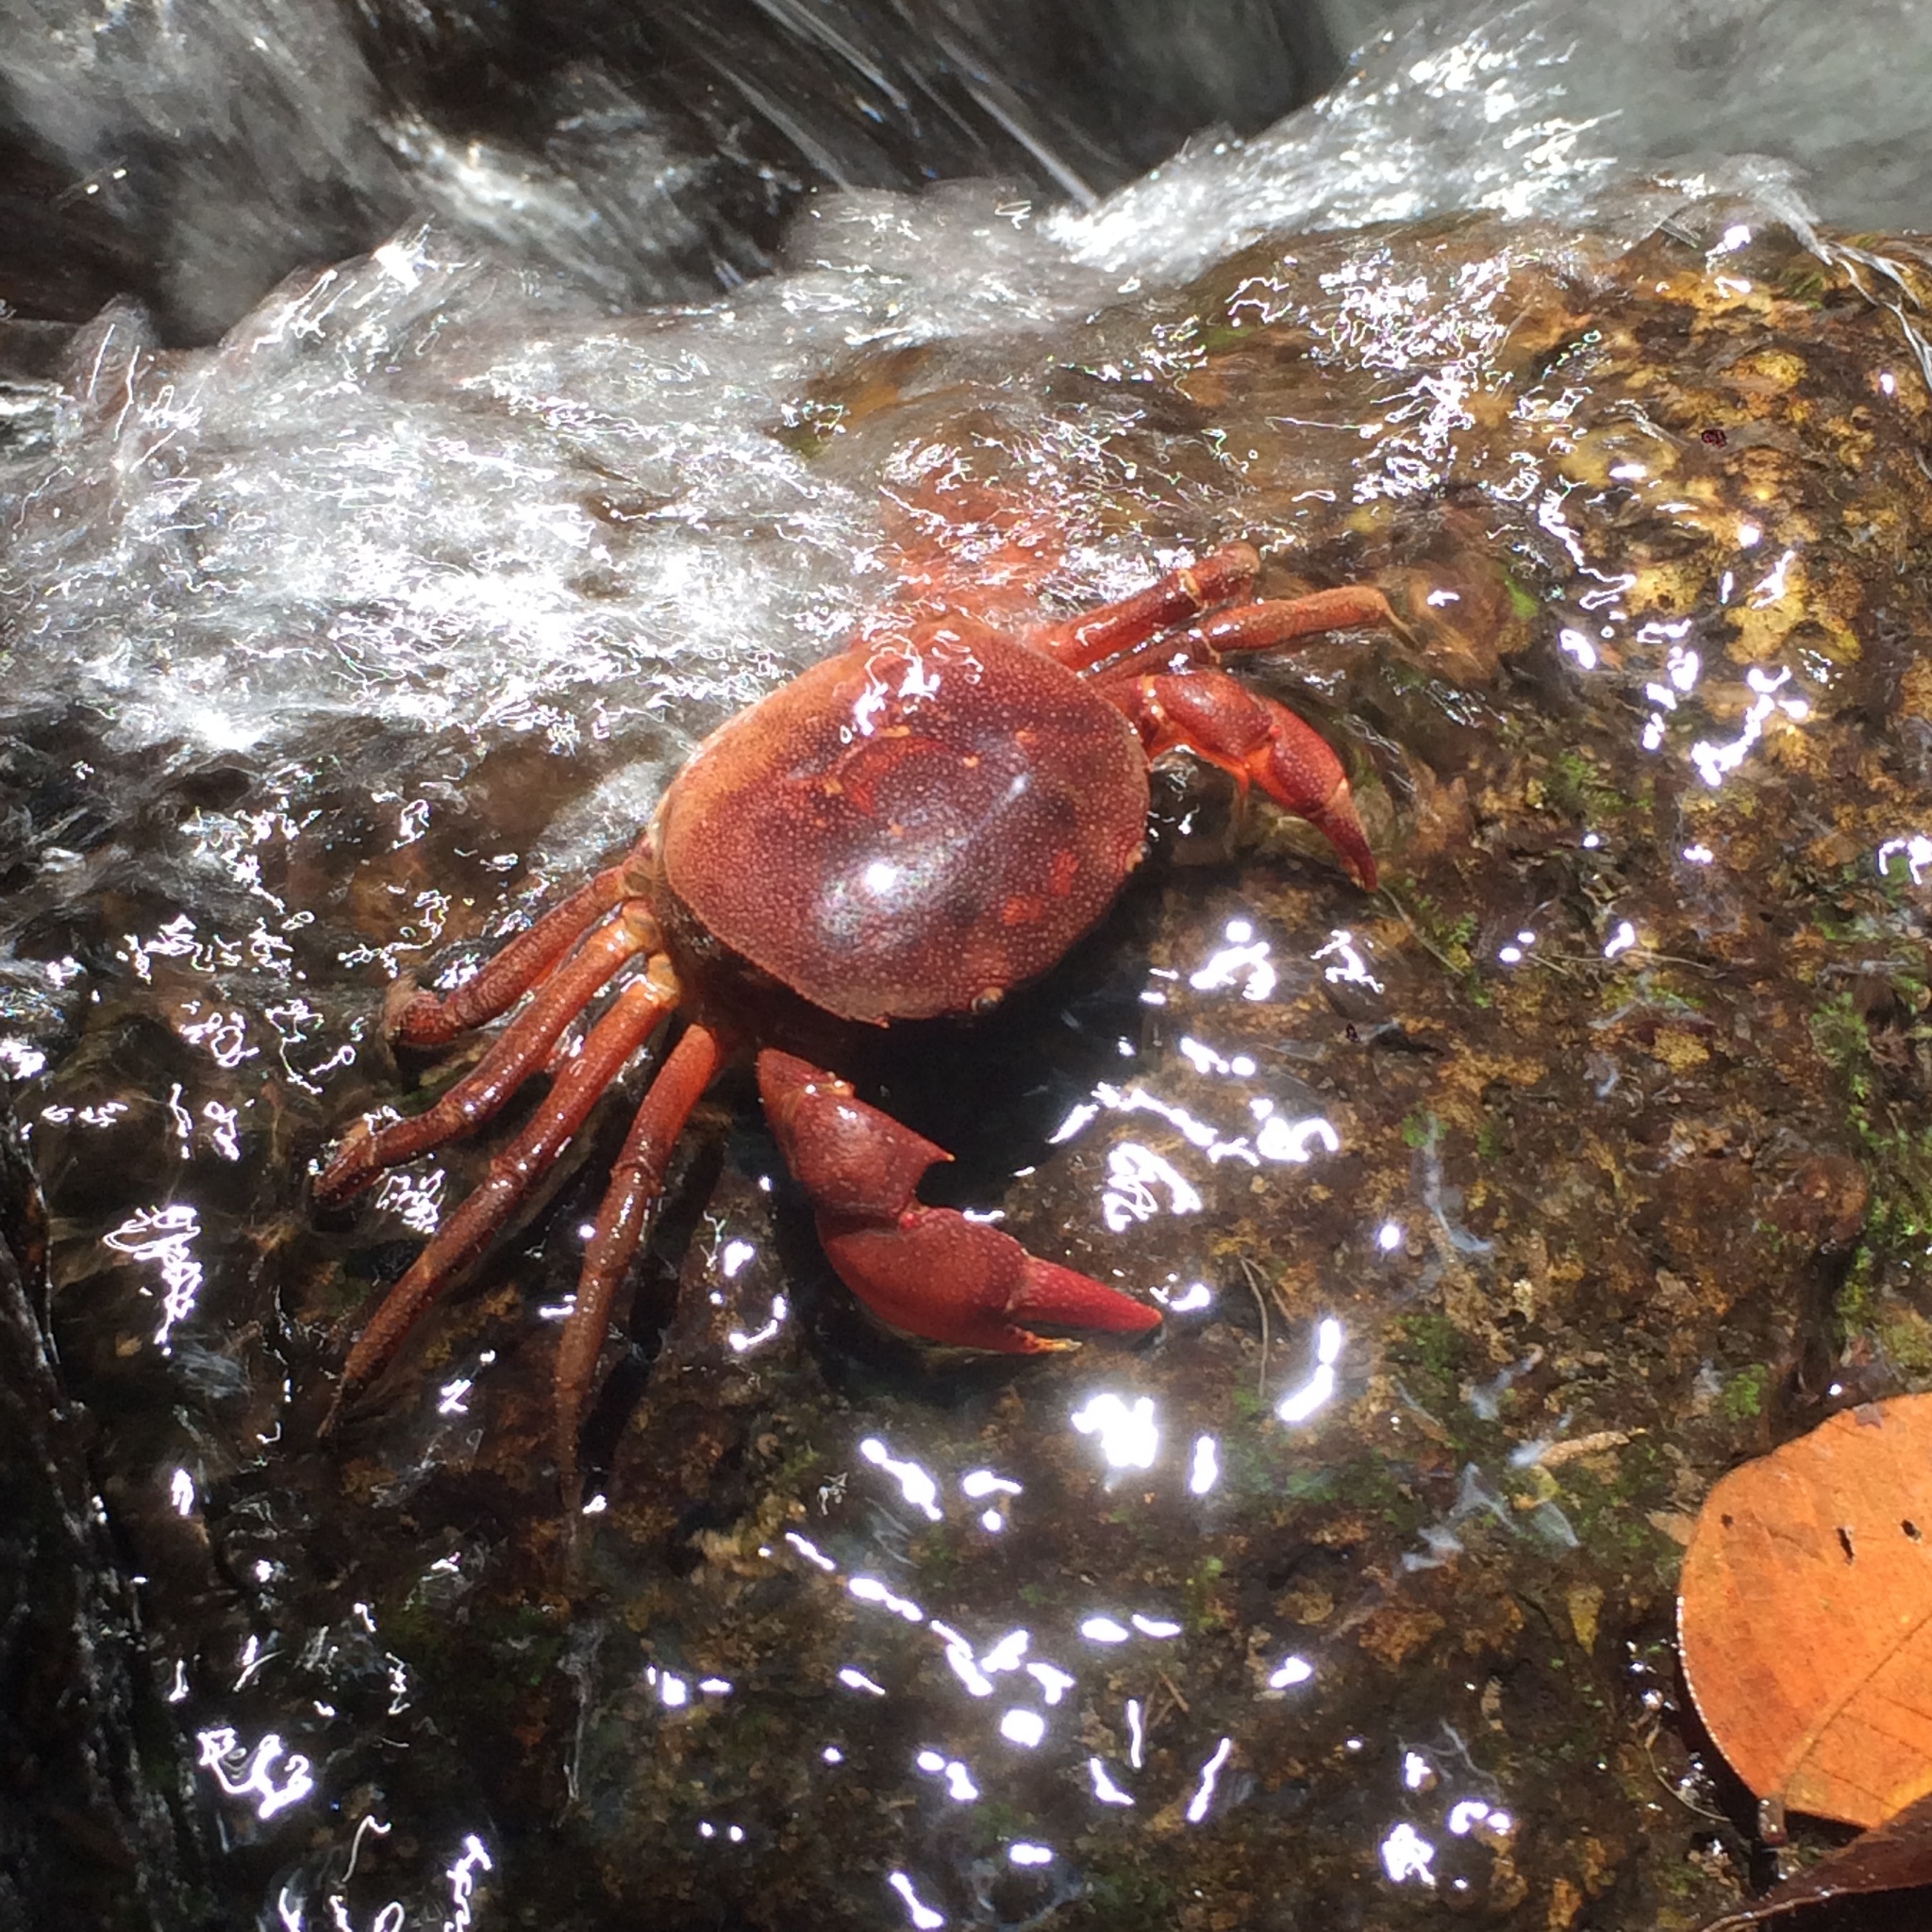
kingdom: Animalia
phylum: Arthropoda
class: Malacostraca
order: Decapoda
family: Trichodactylidae
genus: Trichodactylus
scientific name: Trichodactylus crassus
